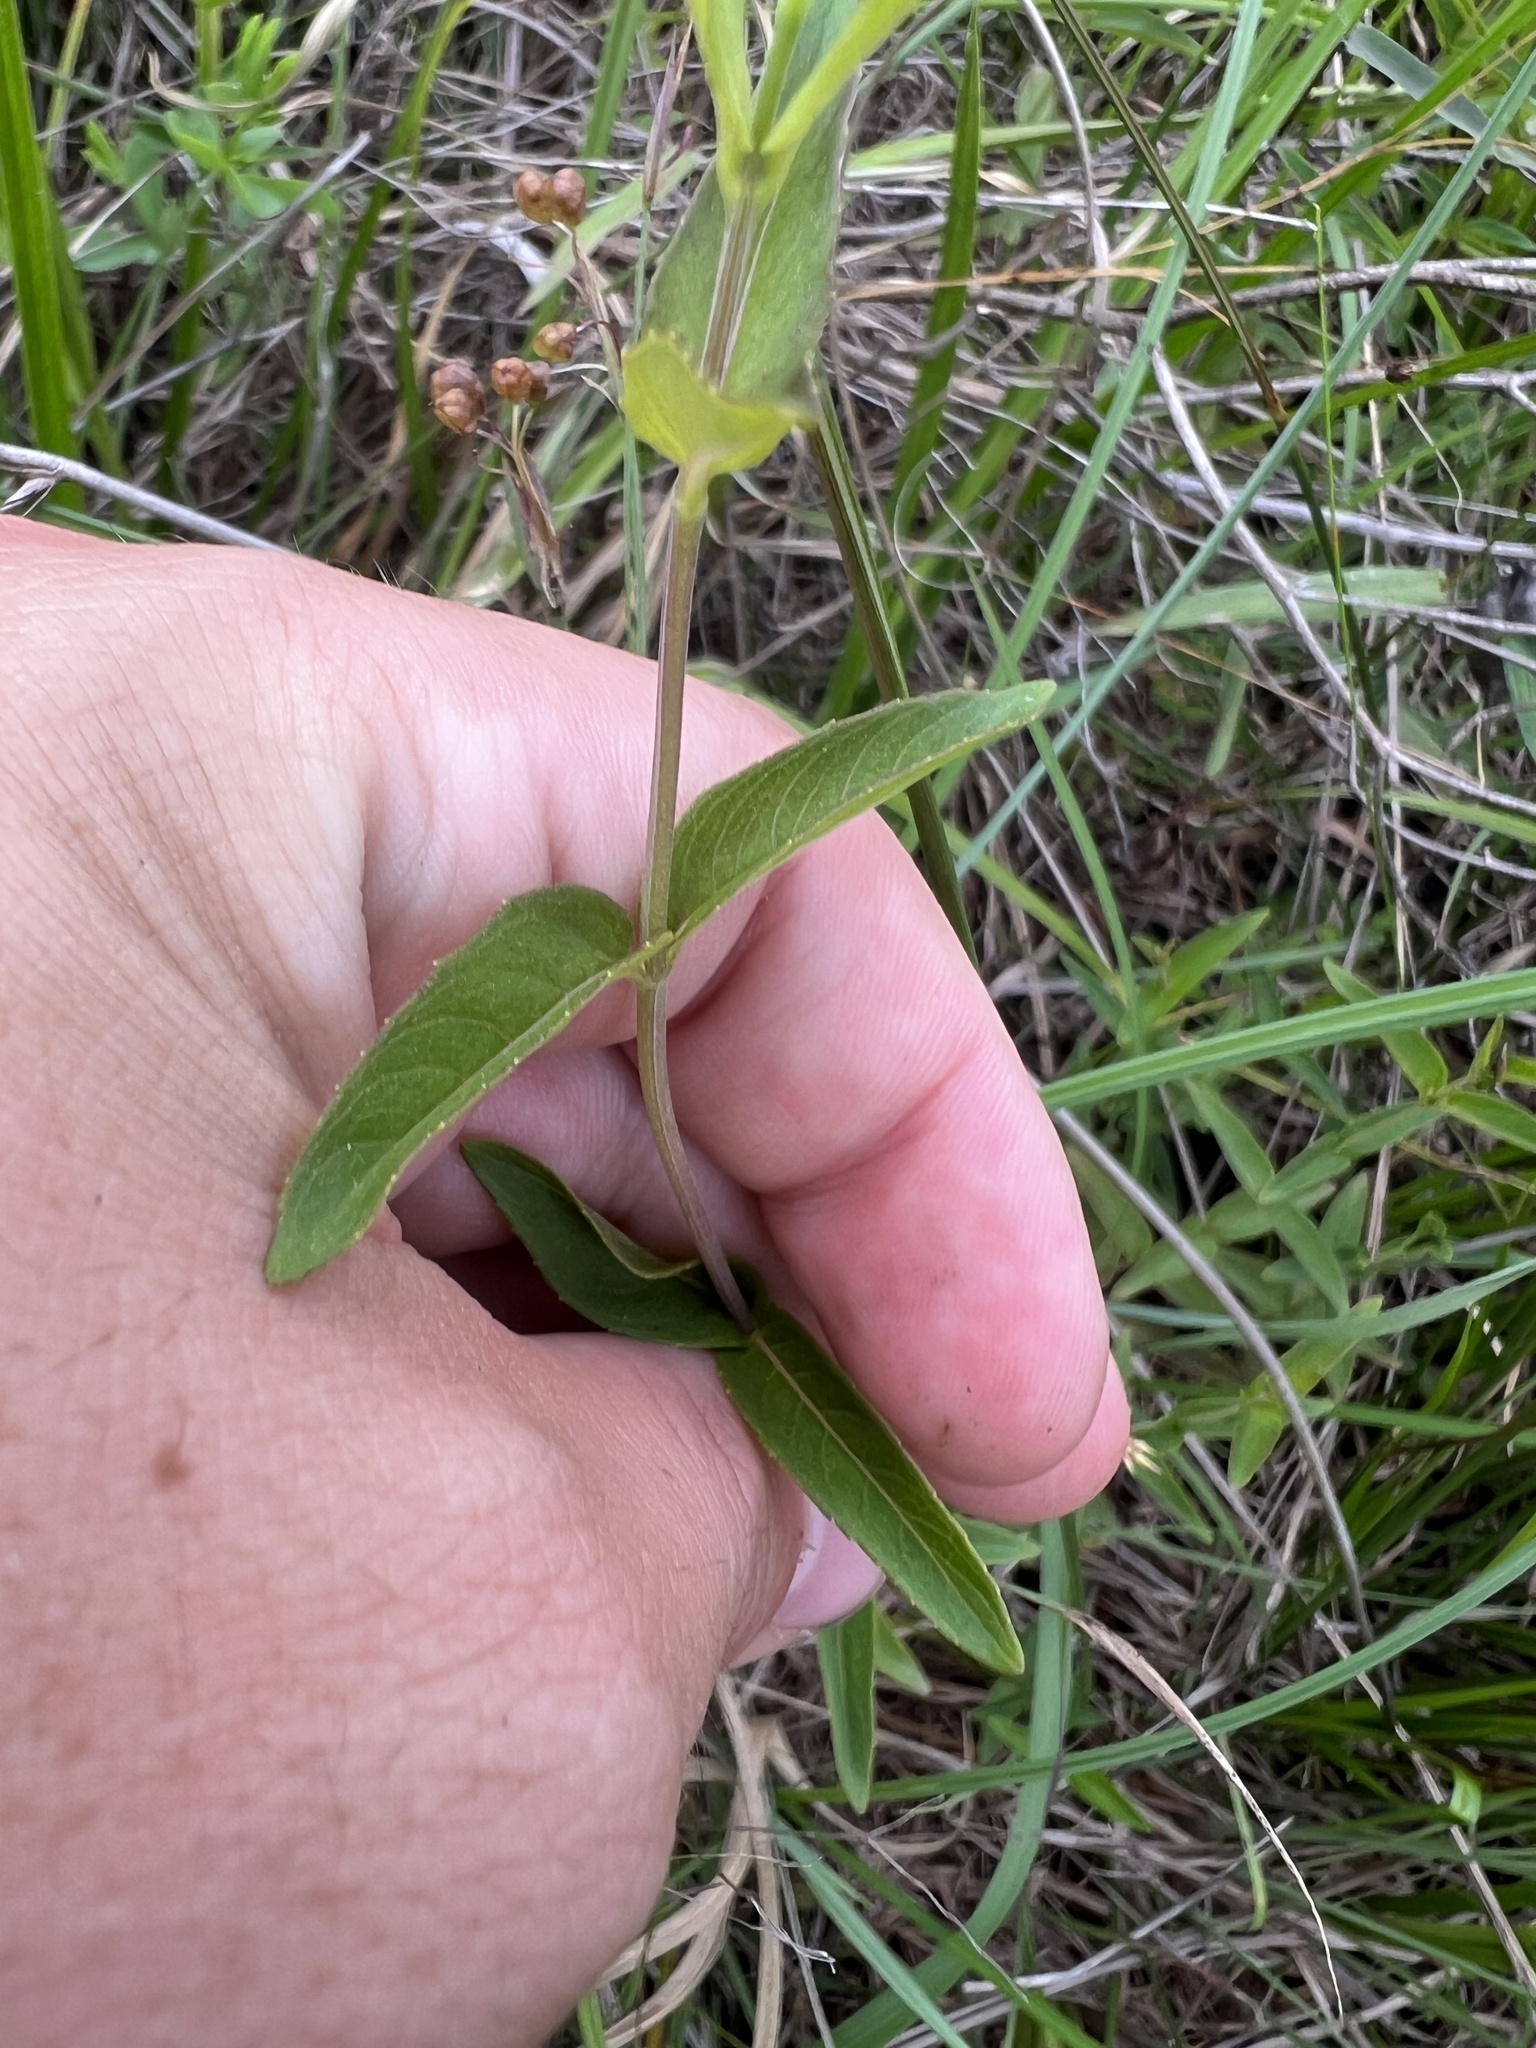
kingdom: Plantae
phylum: Tracheophyta
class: Magnoliopsida
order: Lamiales
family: Lamiaceae
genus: Pycnanthemum
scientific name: Pycnanthemum muticum
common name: Blunt mountain-mint
